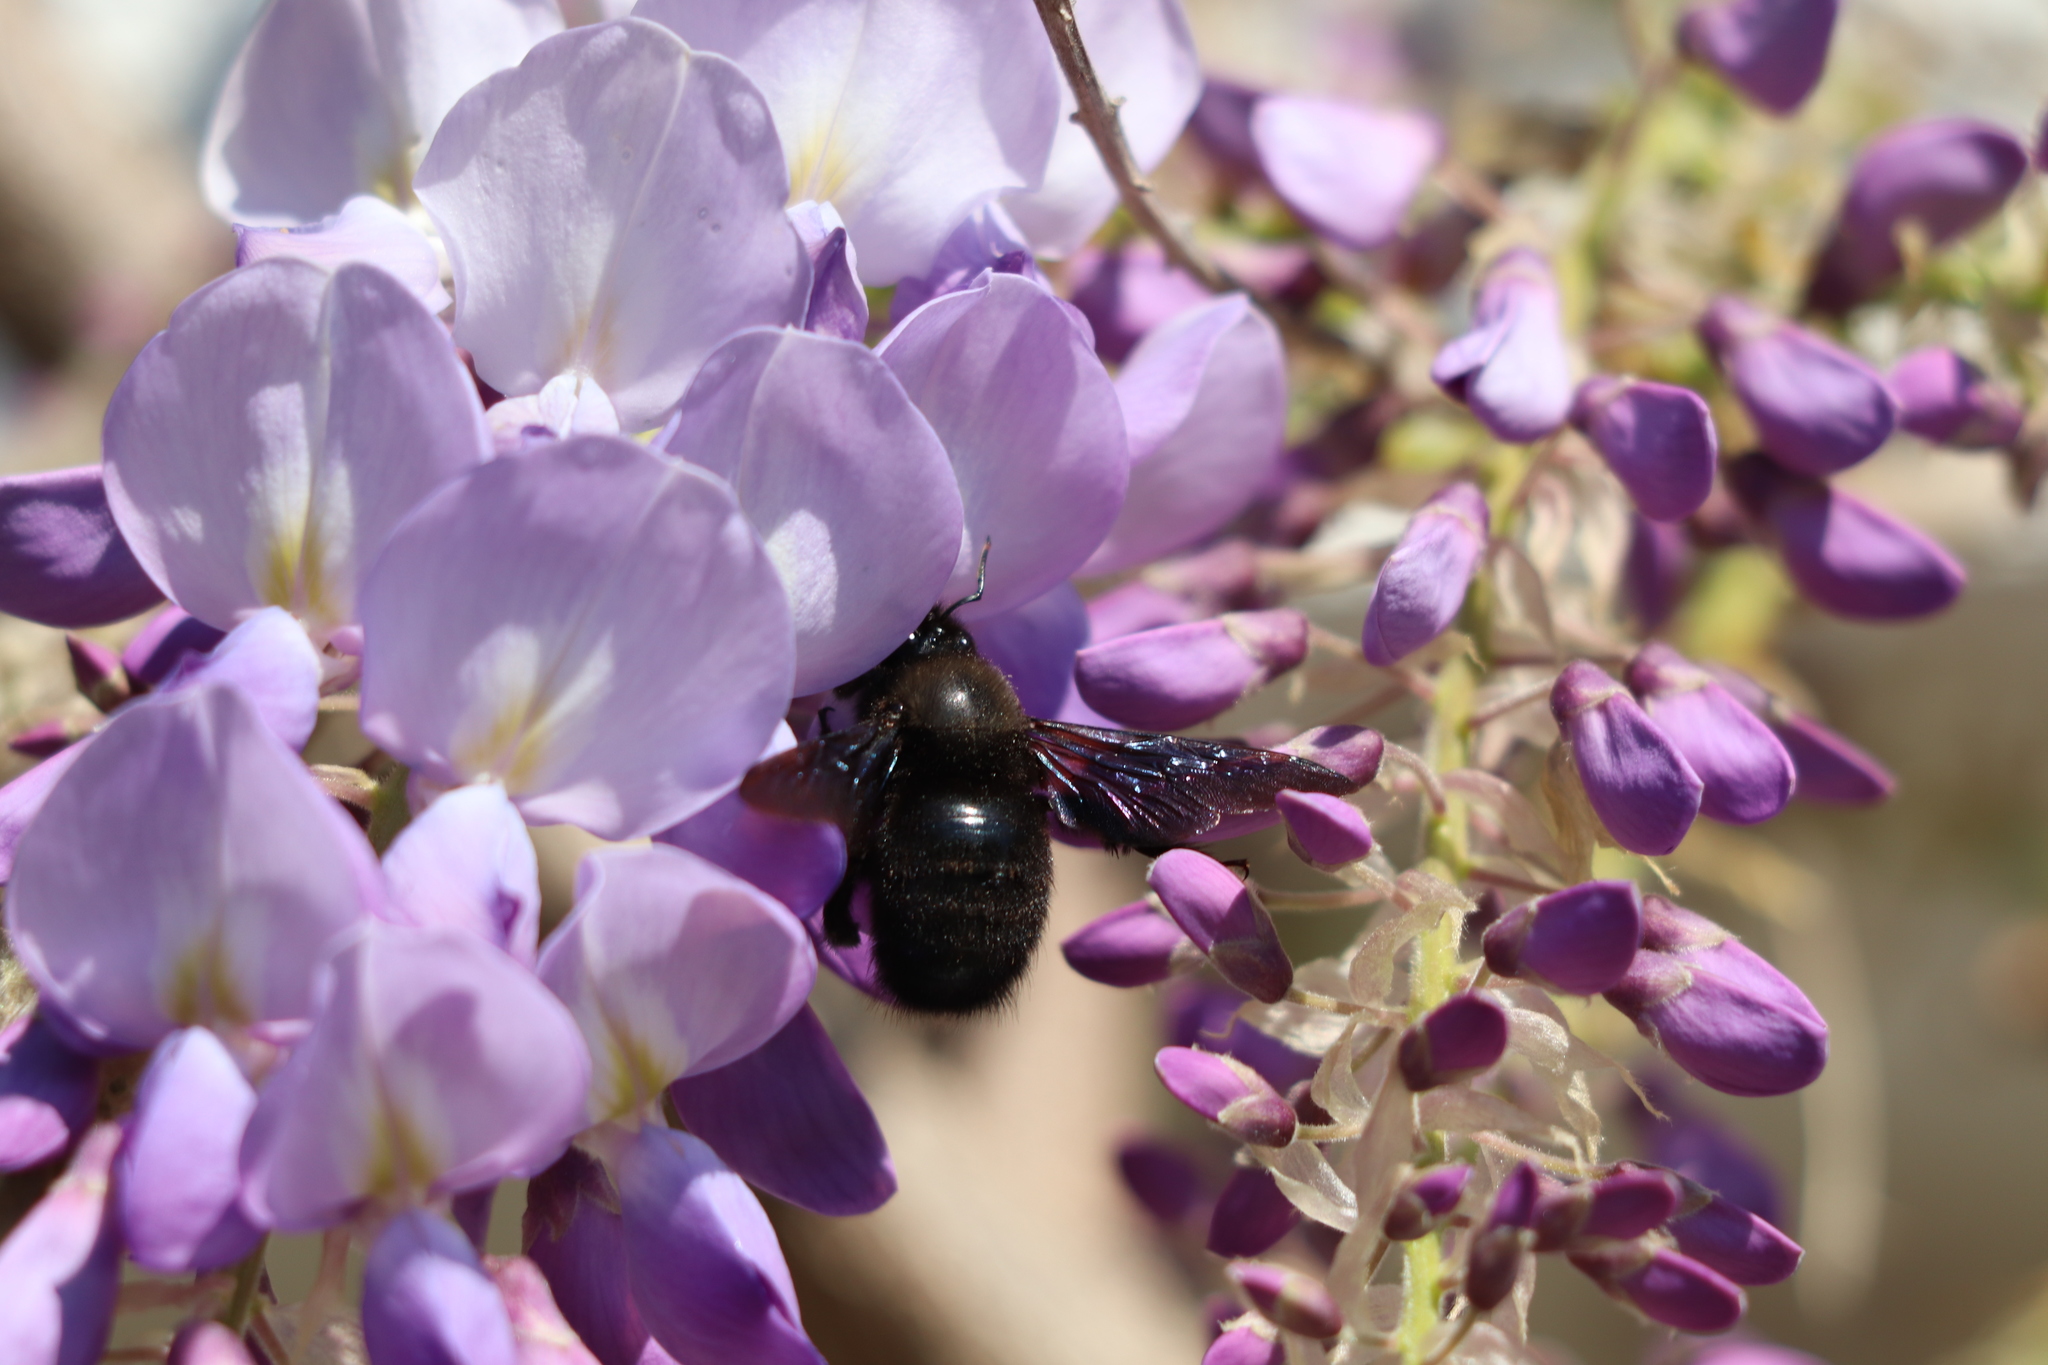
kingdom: Animalia
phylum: Arthropoda
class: Insecta
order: Hymenoptera
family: Apidae
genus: Xylocopa
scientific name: Xylocopa violacea
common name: Violet carpenter bee
